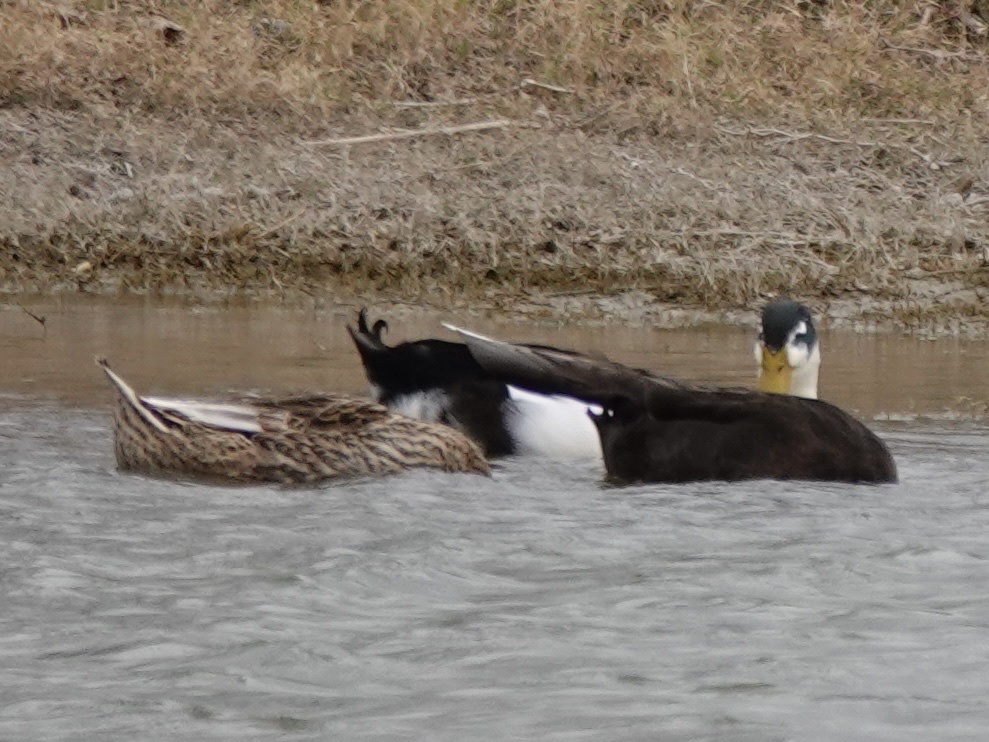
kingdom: Animalia
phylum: Chordata
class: Aves
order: Anseriformes
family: Anatidae
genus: Anas
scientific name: Anas platyrhynchos
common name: Mallard
